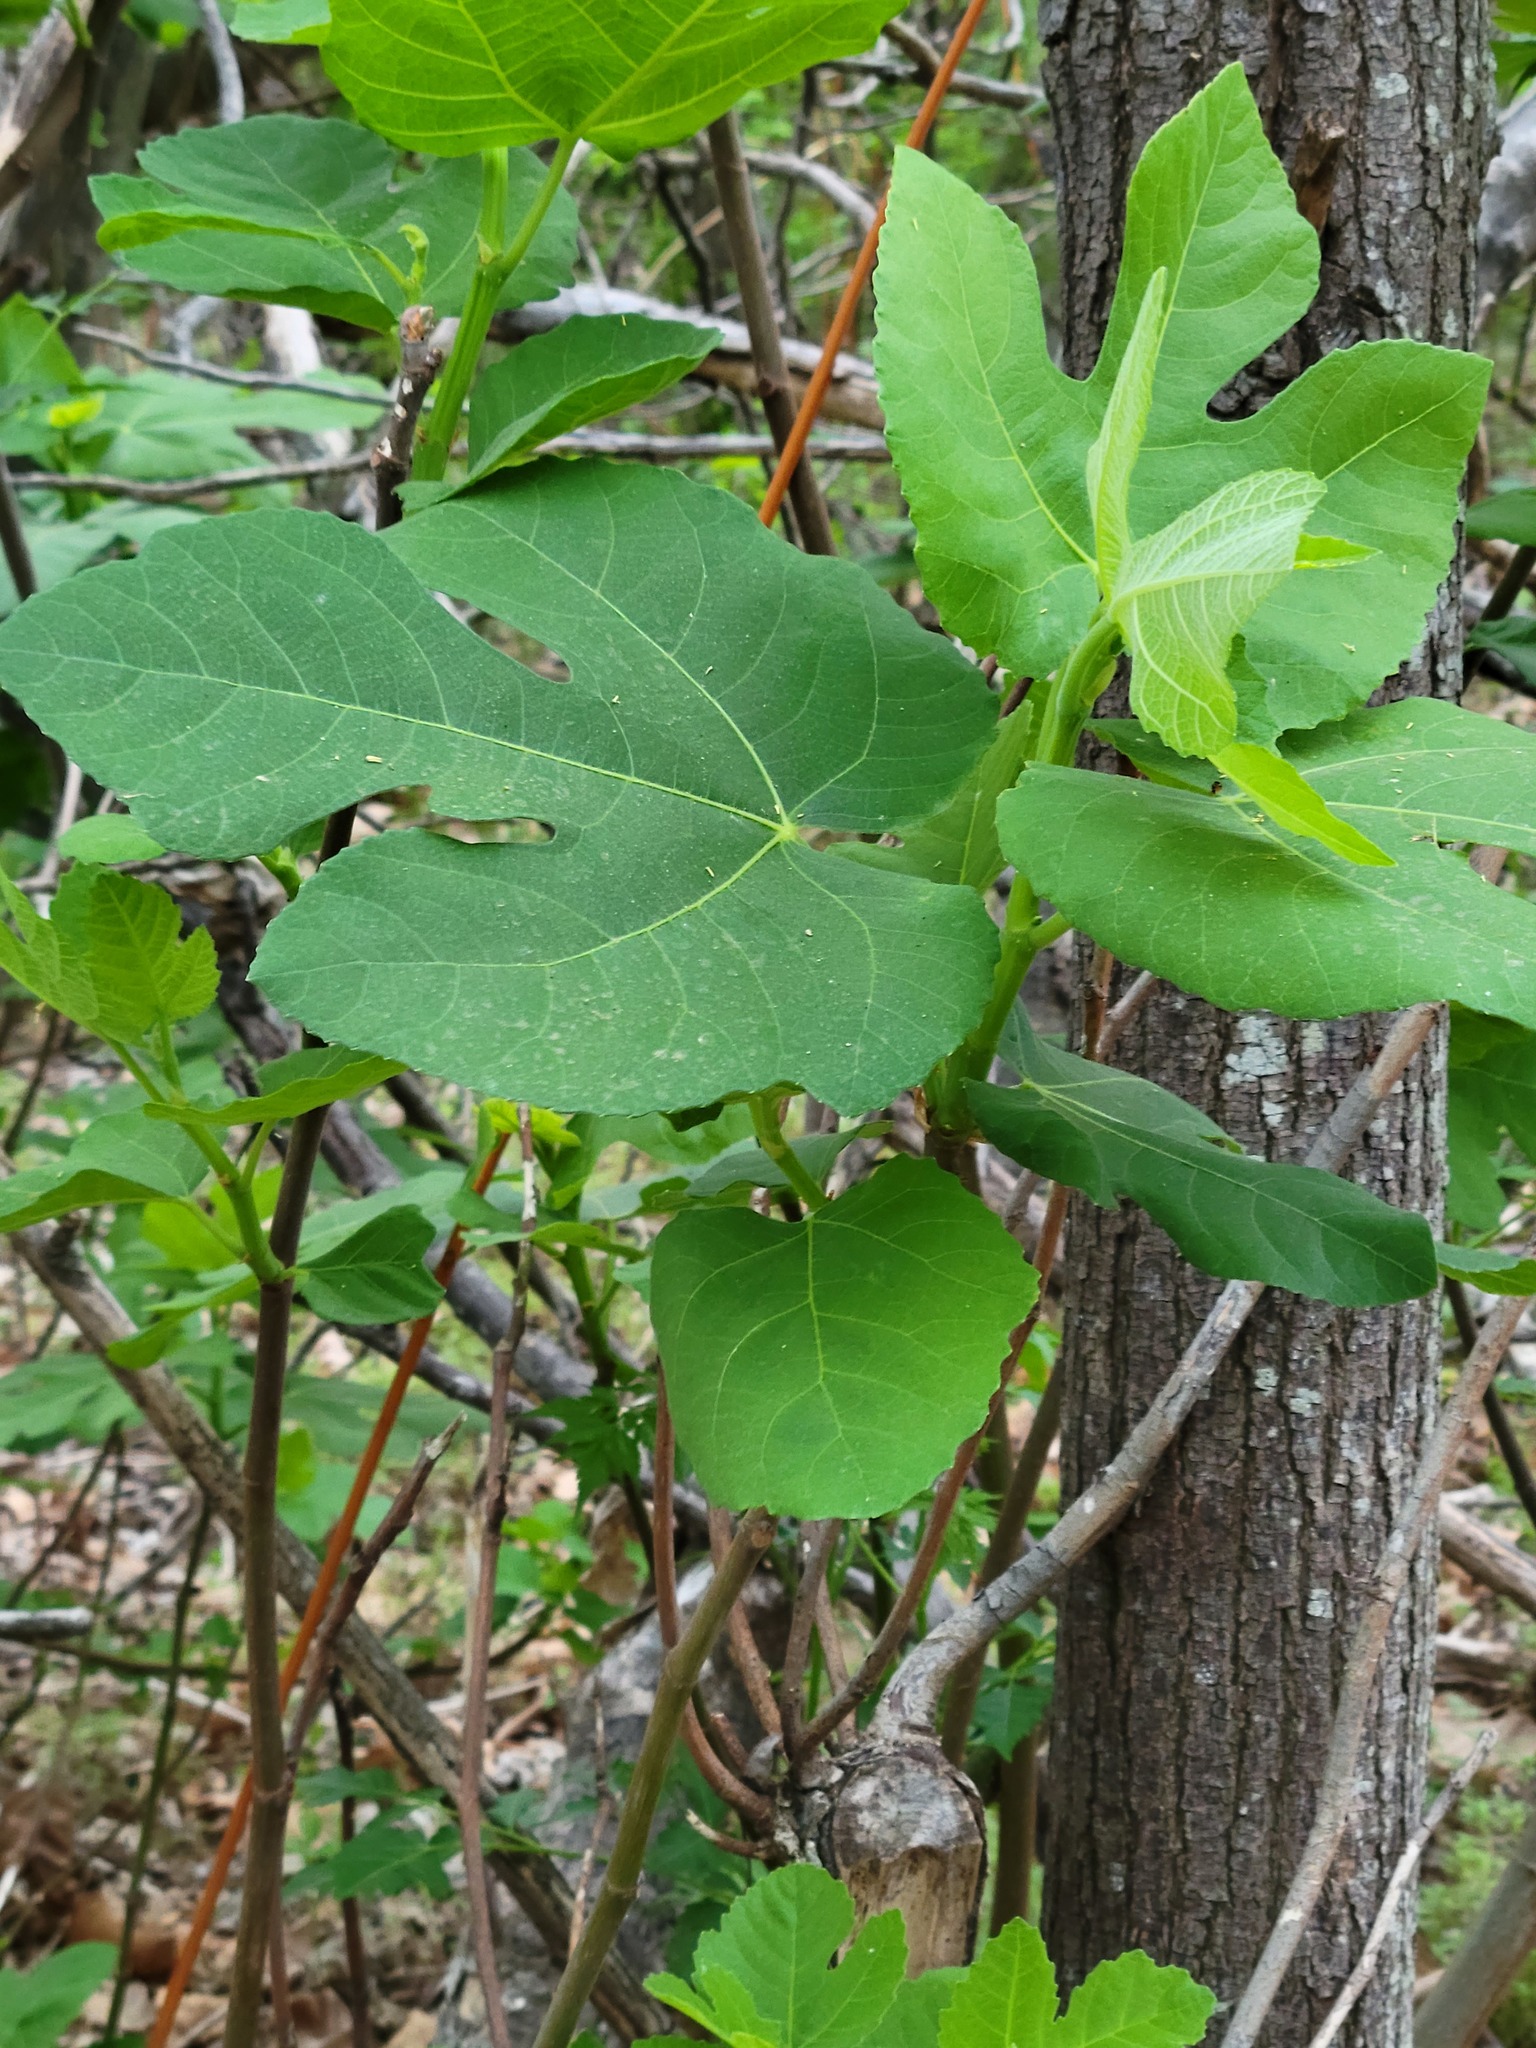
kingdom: Plantae
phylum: Tracheophyta
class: Magnoliopsida
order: Rosales
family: Moraceae
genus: Ficus
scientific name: Ficus carica
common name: Fig
